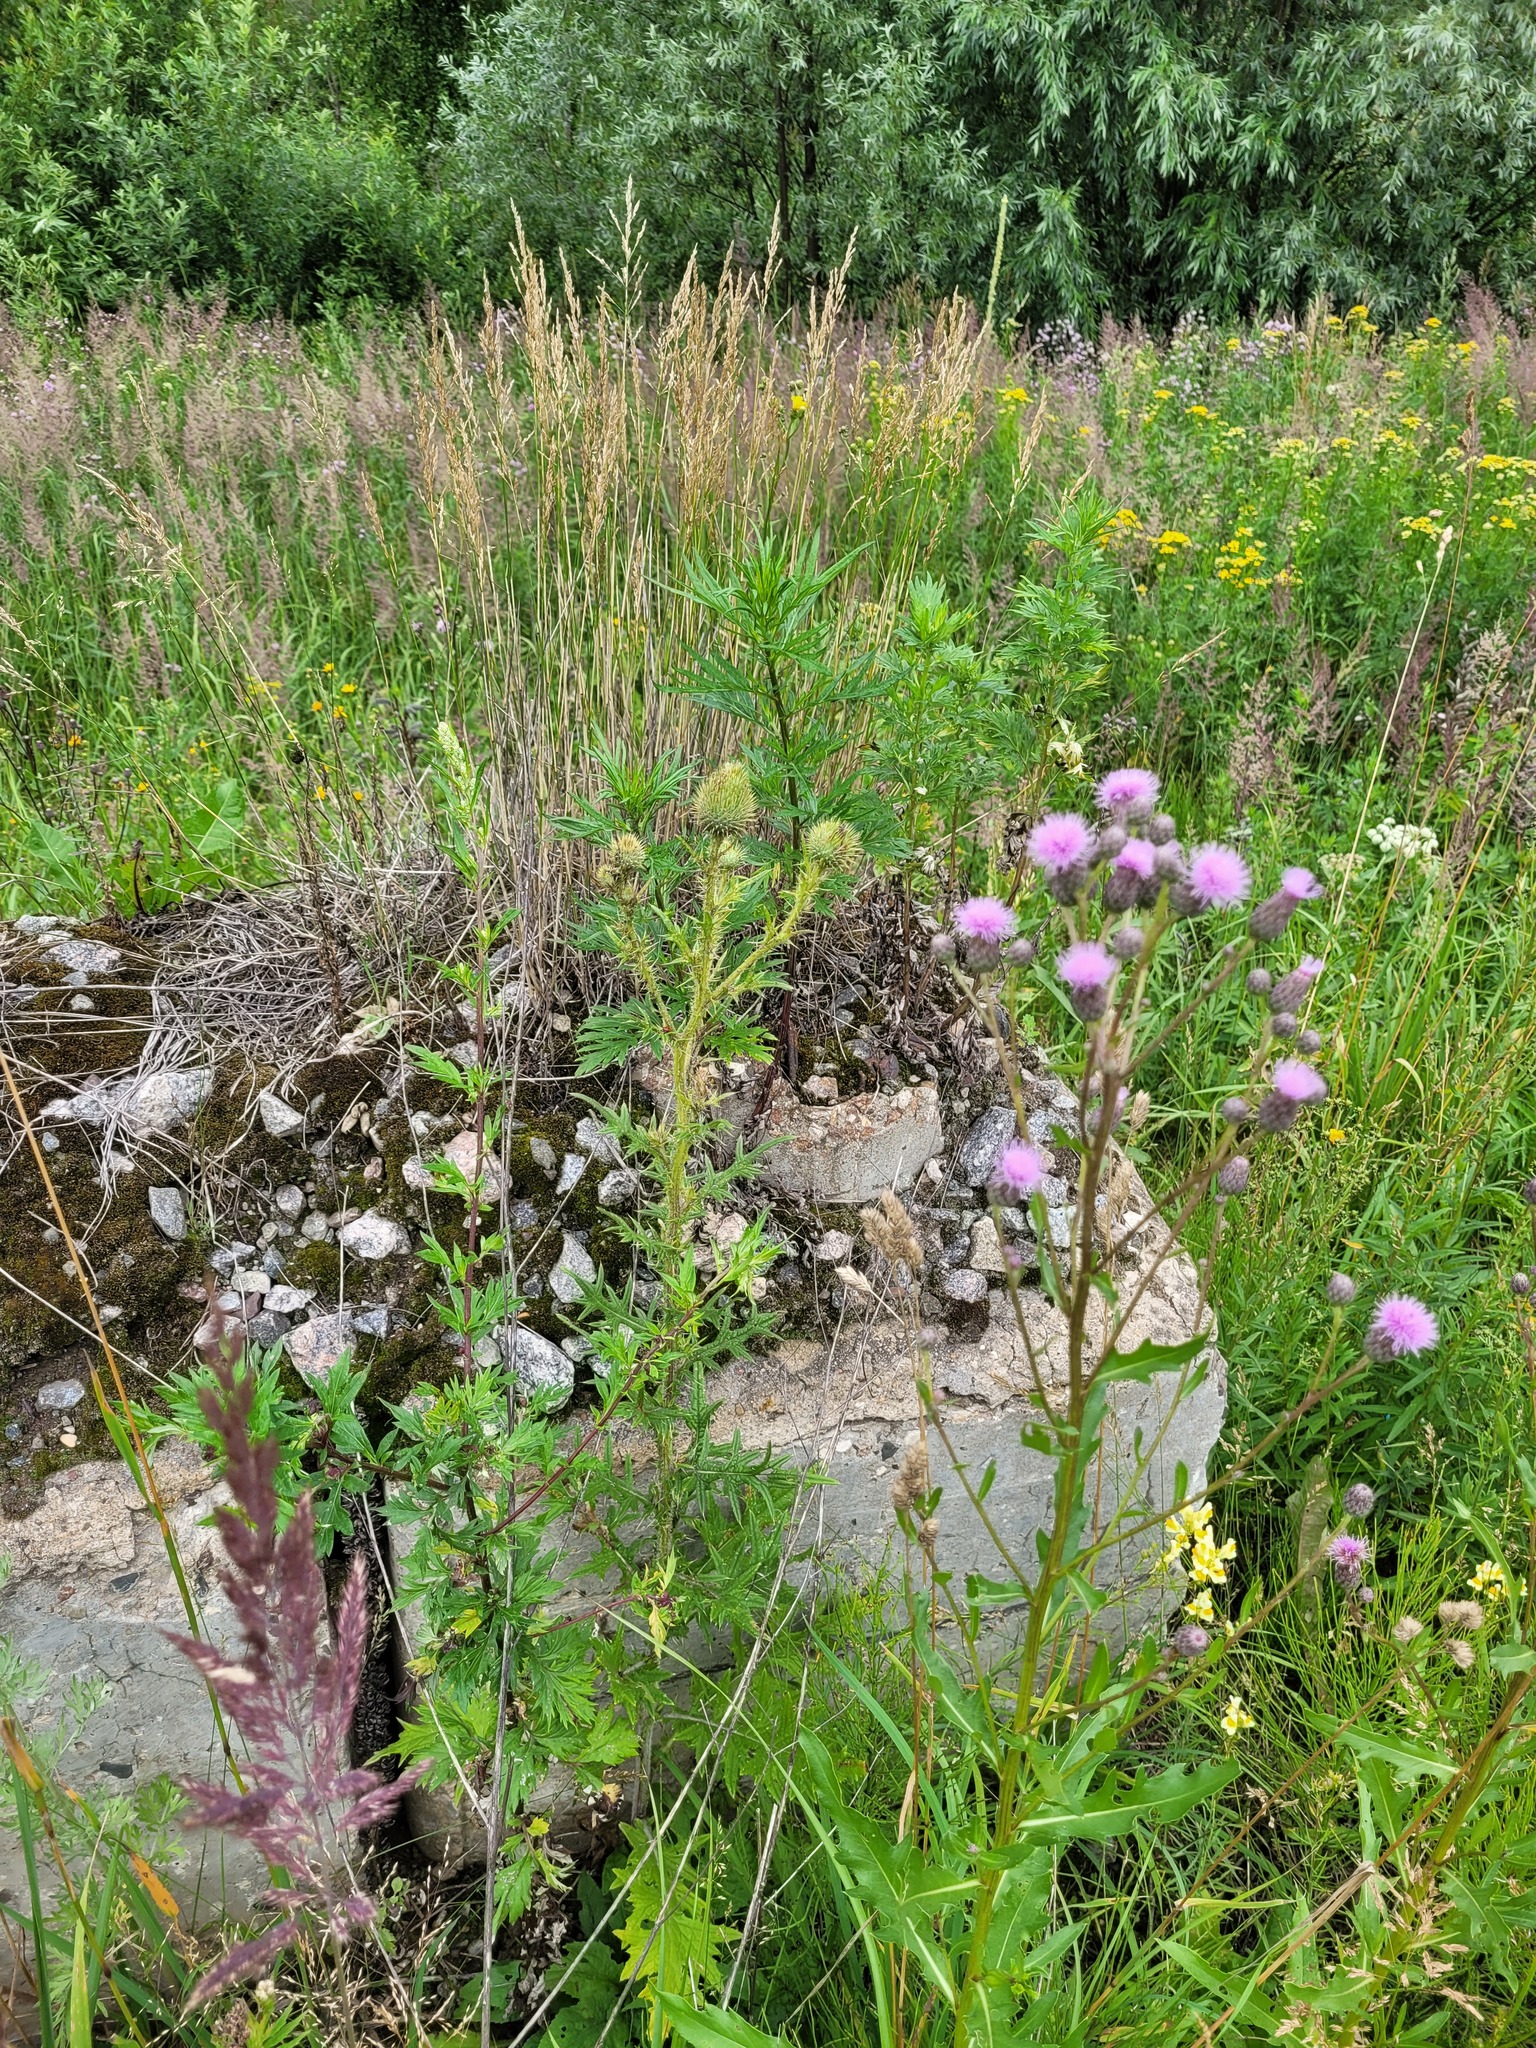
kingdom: Plantae
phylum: Tracheophyta
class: Magnoliopsida
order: Asterales
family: Asteraceae
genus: Cirsium
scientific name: Cirsium vulgare
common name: Bull thistle
